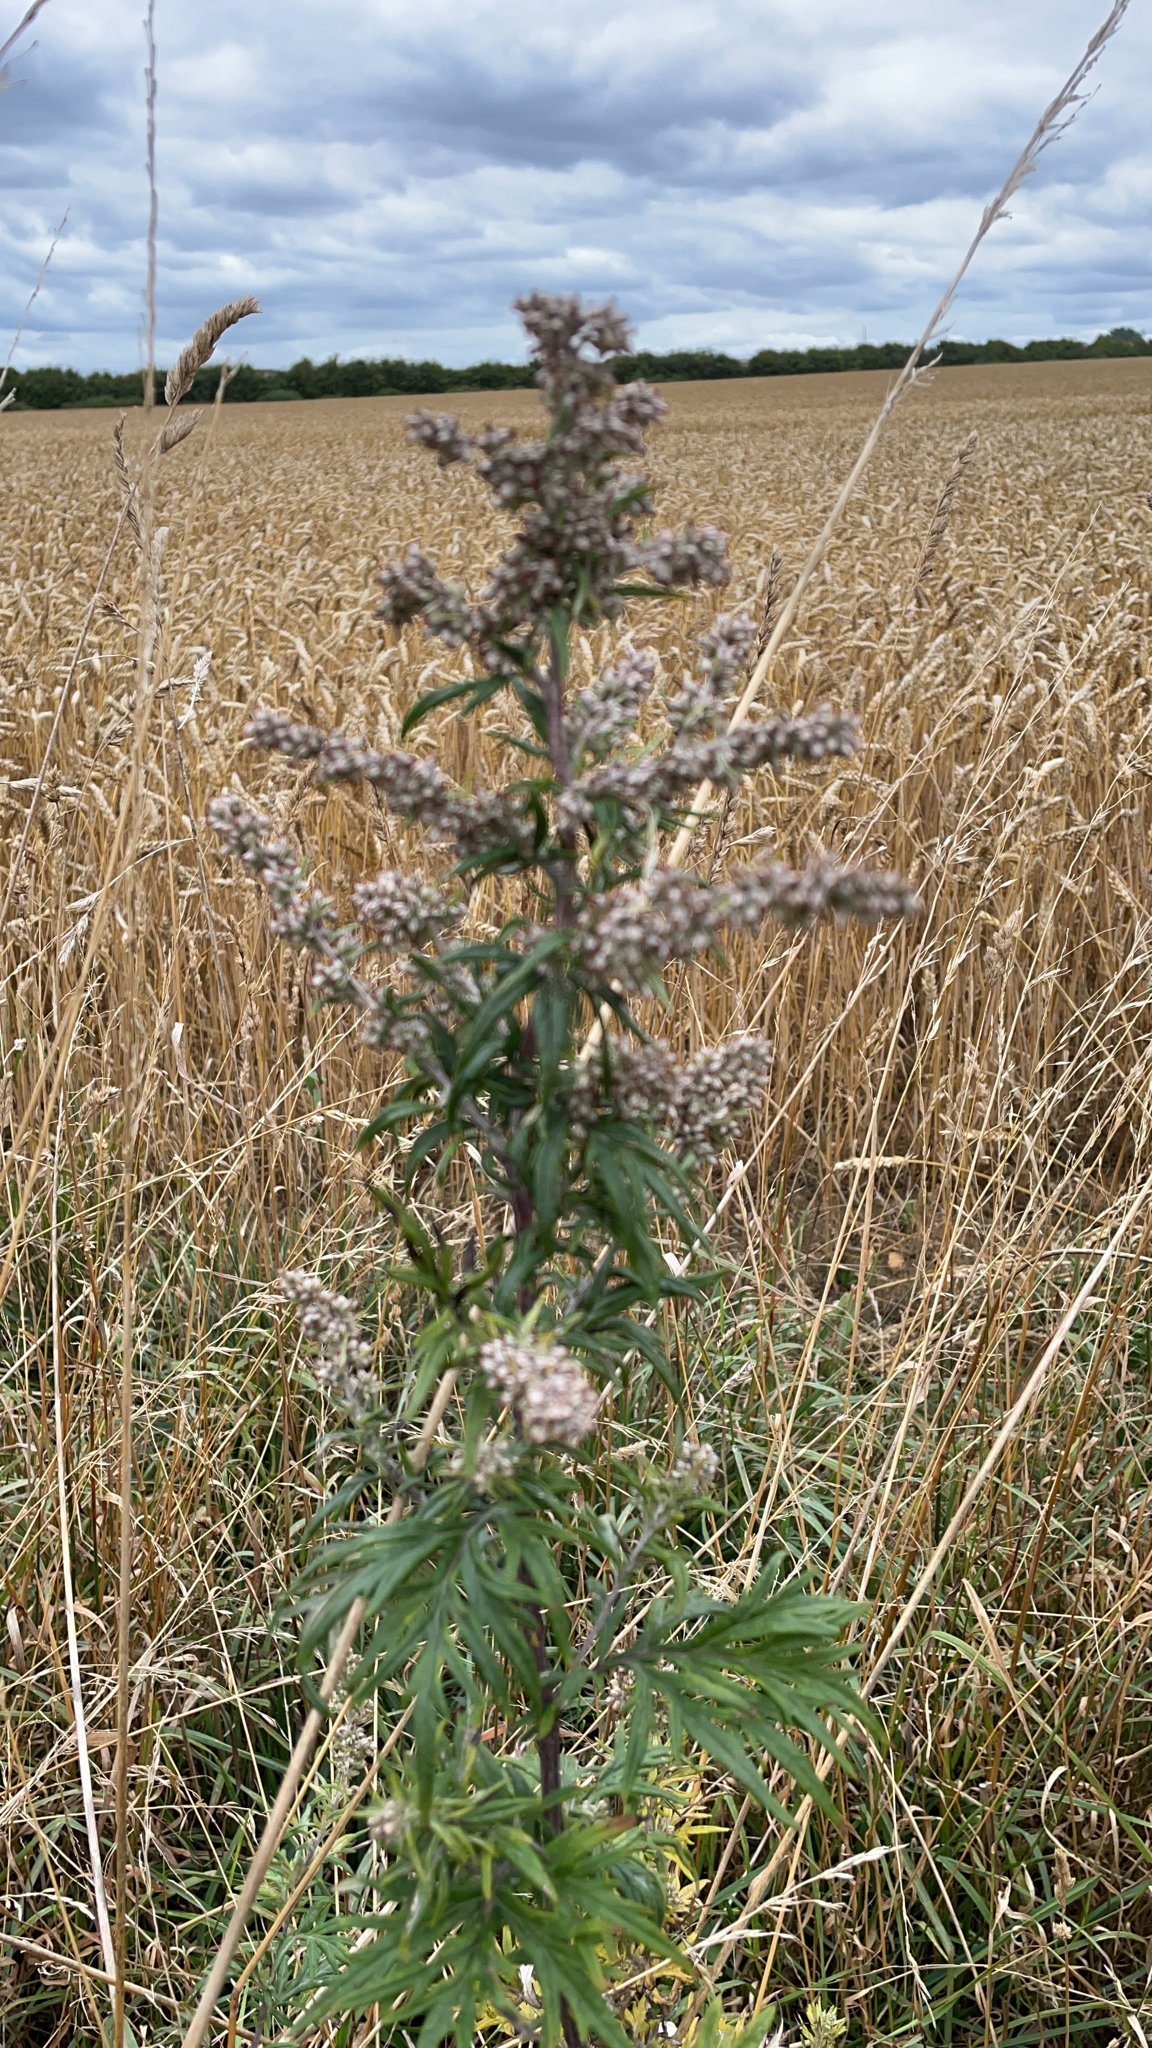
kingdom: Plantae
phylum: Tracheophyta
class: Magnoliopsida
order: Asterales
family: Asteraceae
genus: Artemisia
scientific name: Artemisia vulgaris
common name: Mugwort
